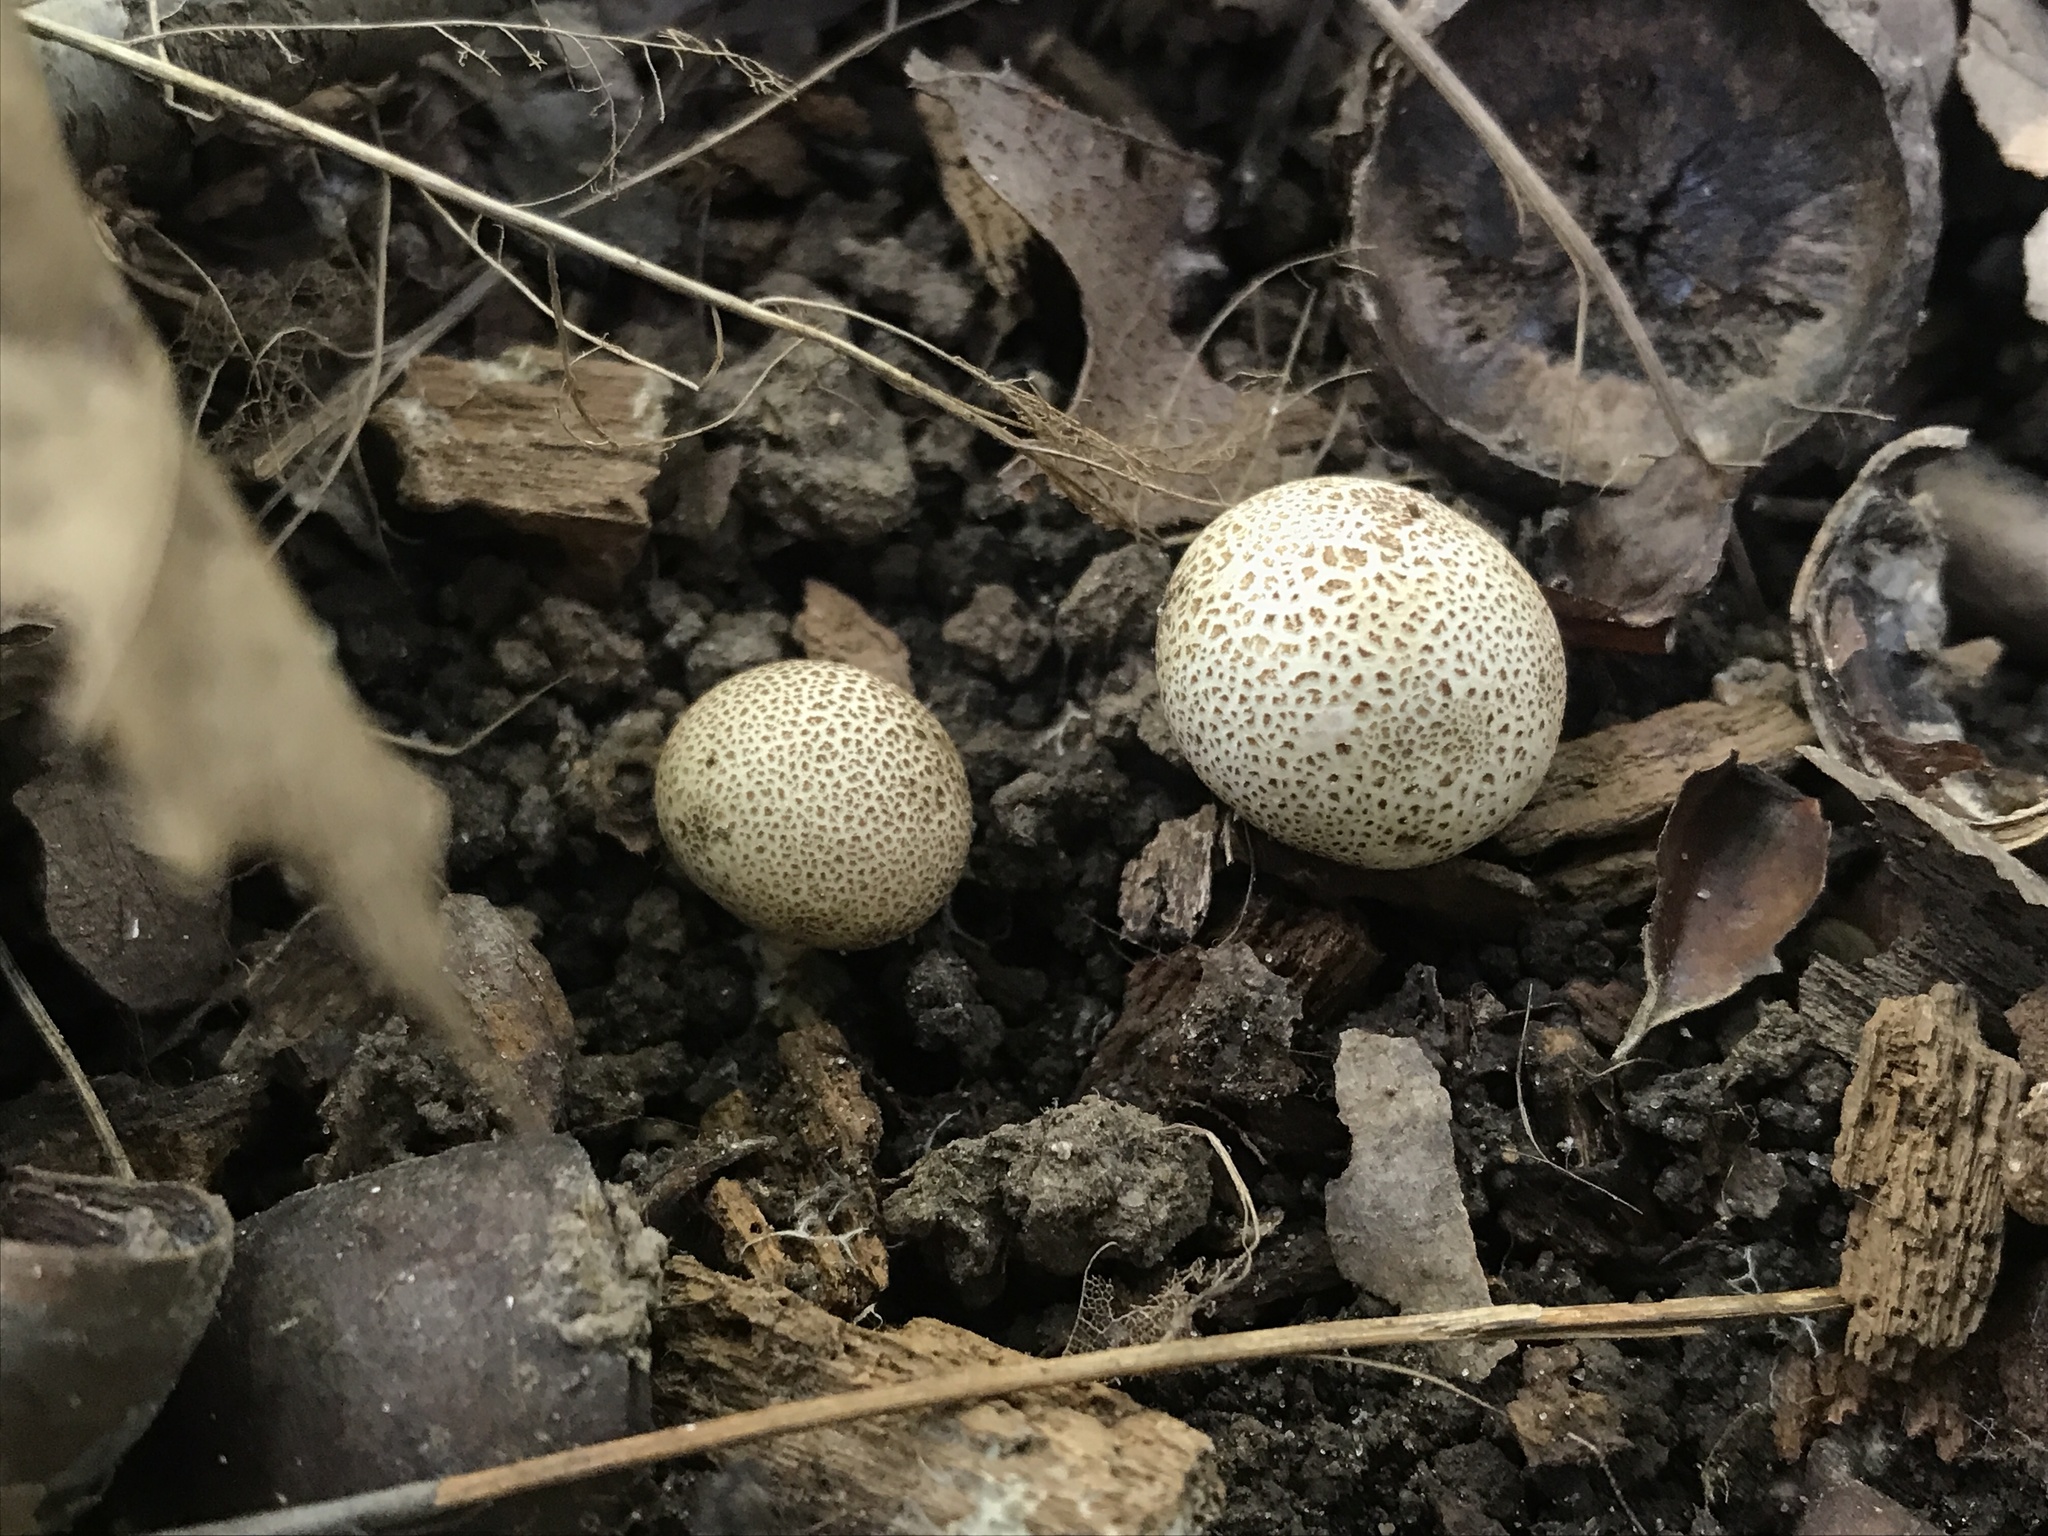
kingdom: Fungi
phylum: Basidiomycota
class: Agaricomycetes
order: Boletales
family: Sclerodermataceae
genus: Scleroderma
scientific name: Scleroderma areolatum
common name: Leopard earthball
